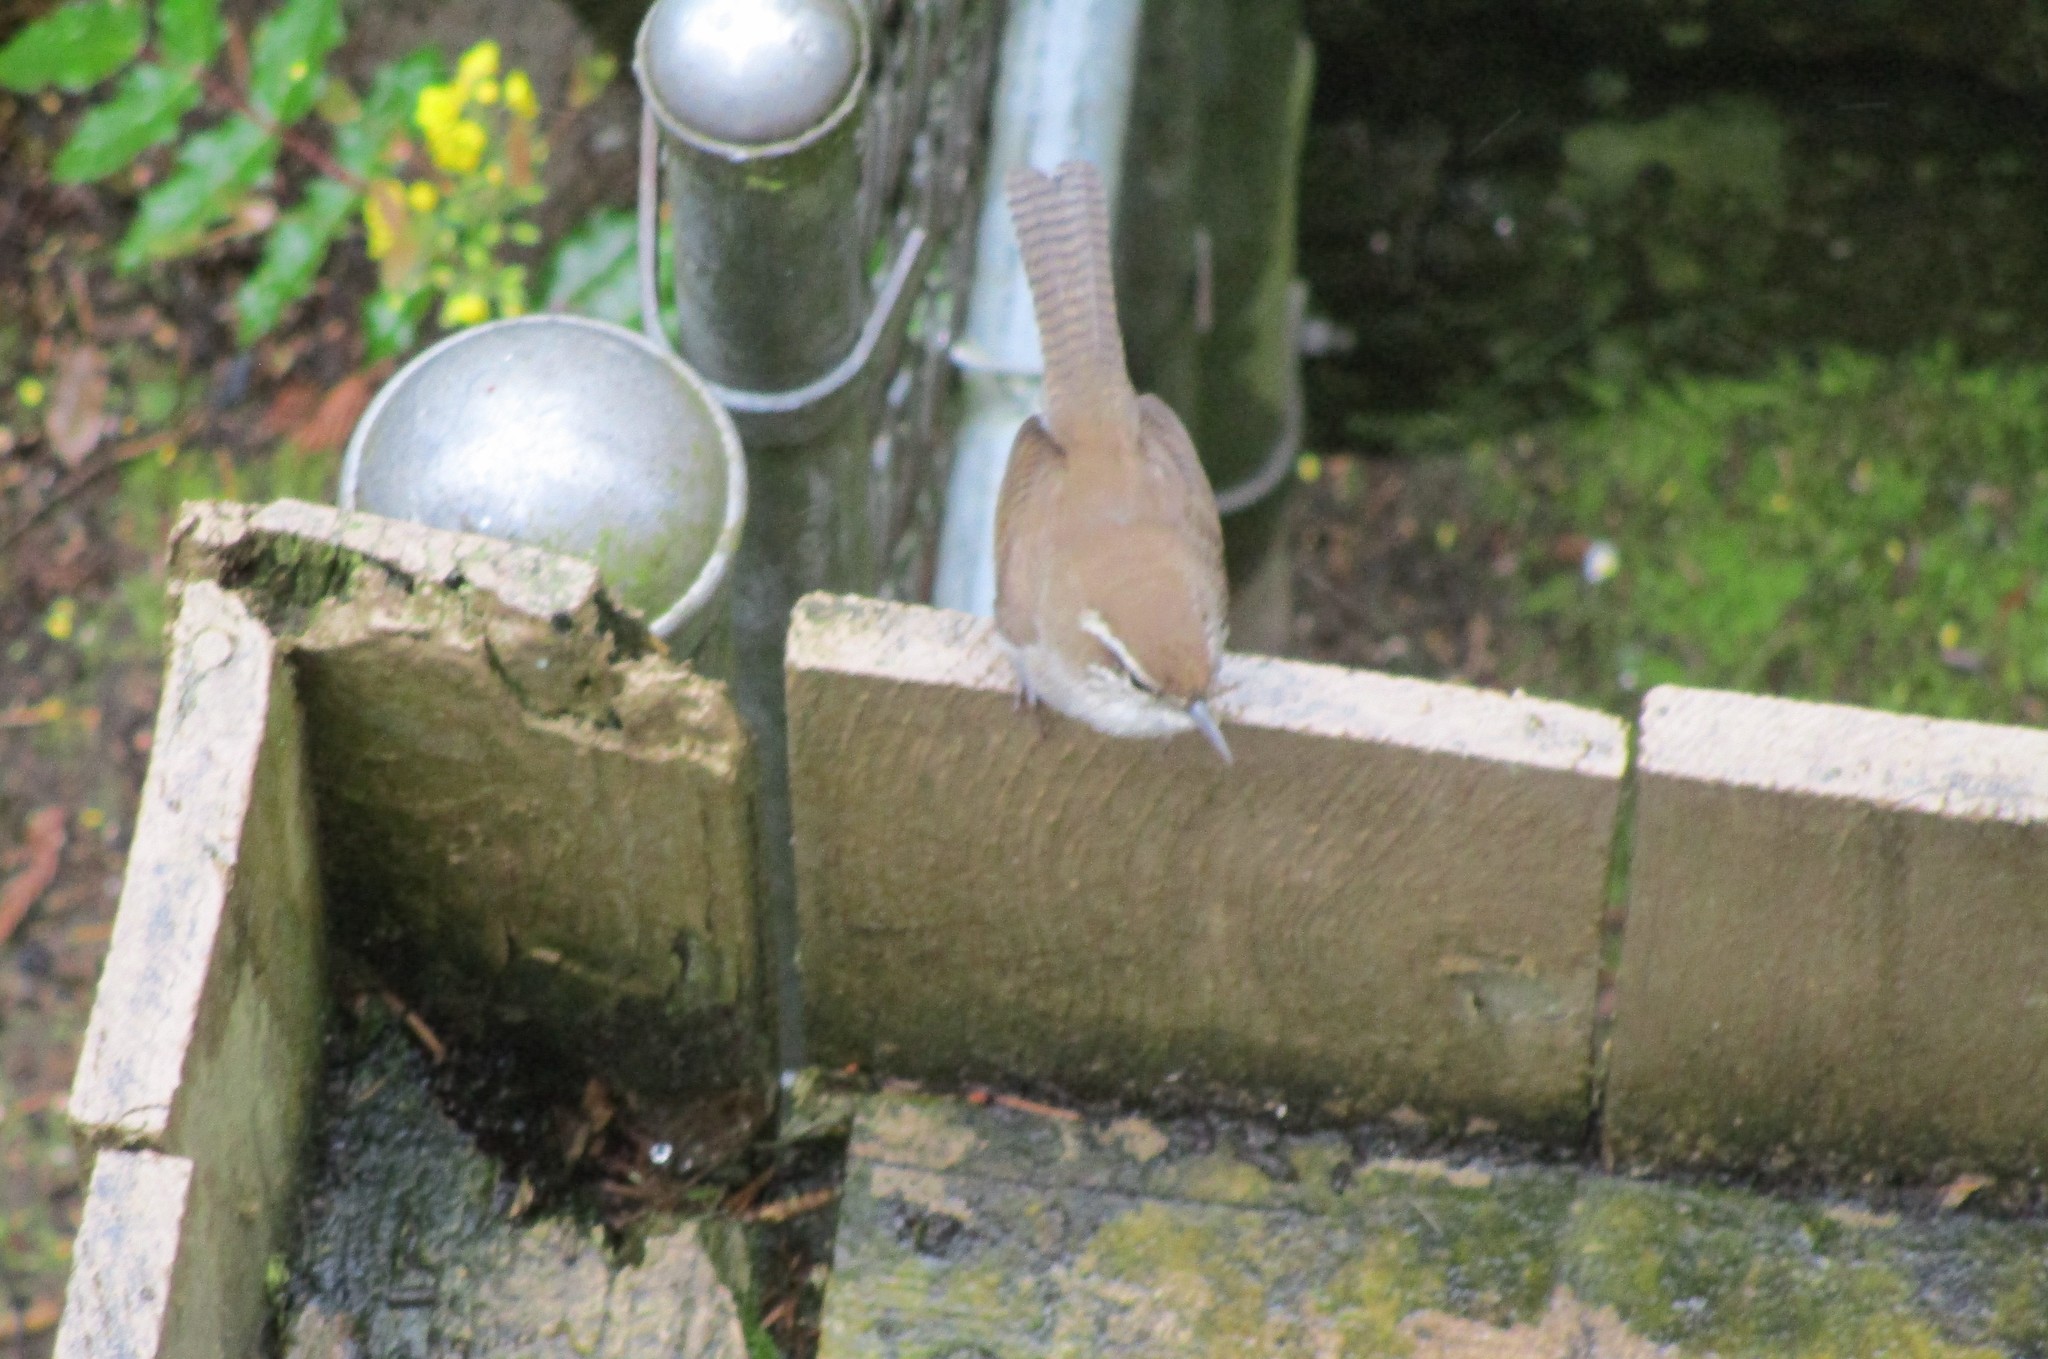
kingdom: Animalia
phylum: Chordata
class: Aves
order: Passeriformes
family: Troglodytidae
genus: Thryomanes
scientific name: Thryomanes bewickii
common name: Bewick's wren
